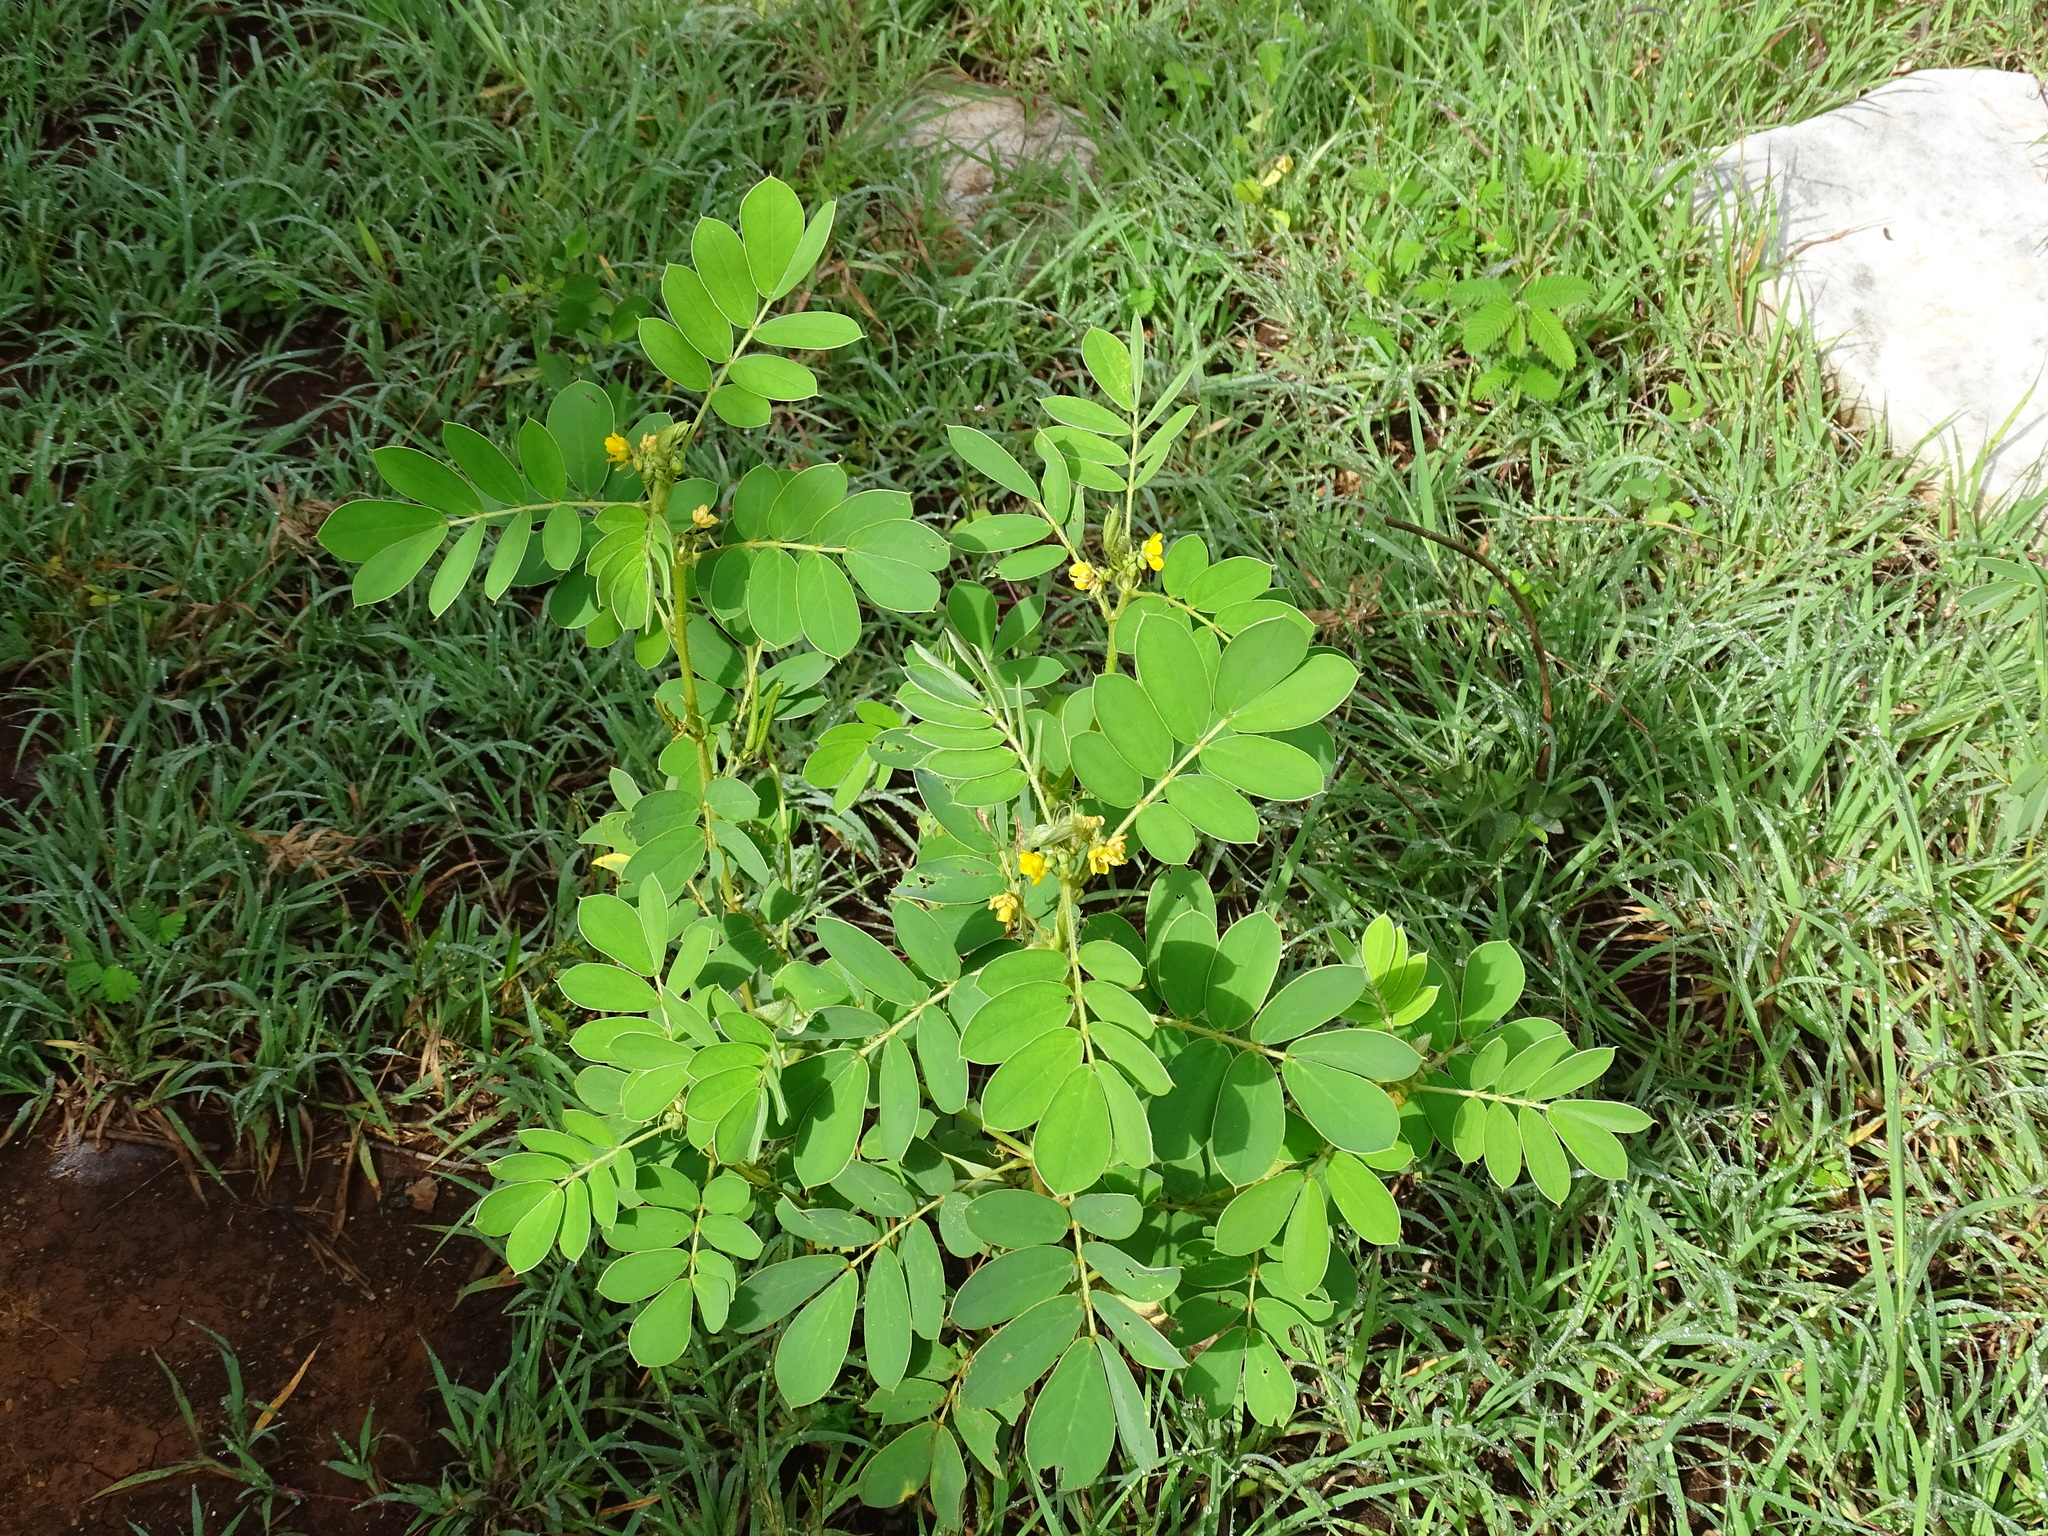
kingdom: Plantae
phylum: Tracheophyta
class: Magnoliopsida
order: Fabales
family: Fabaceae
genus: Senna
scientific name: Senna uniflora
